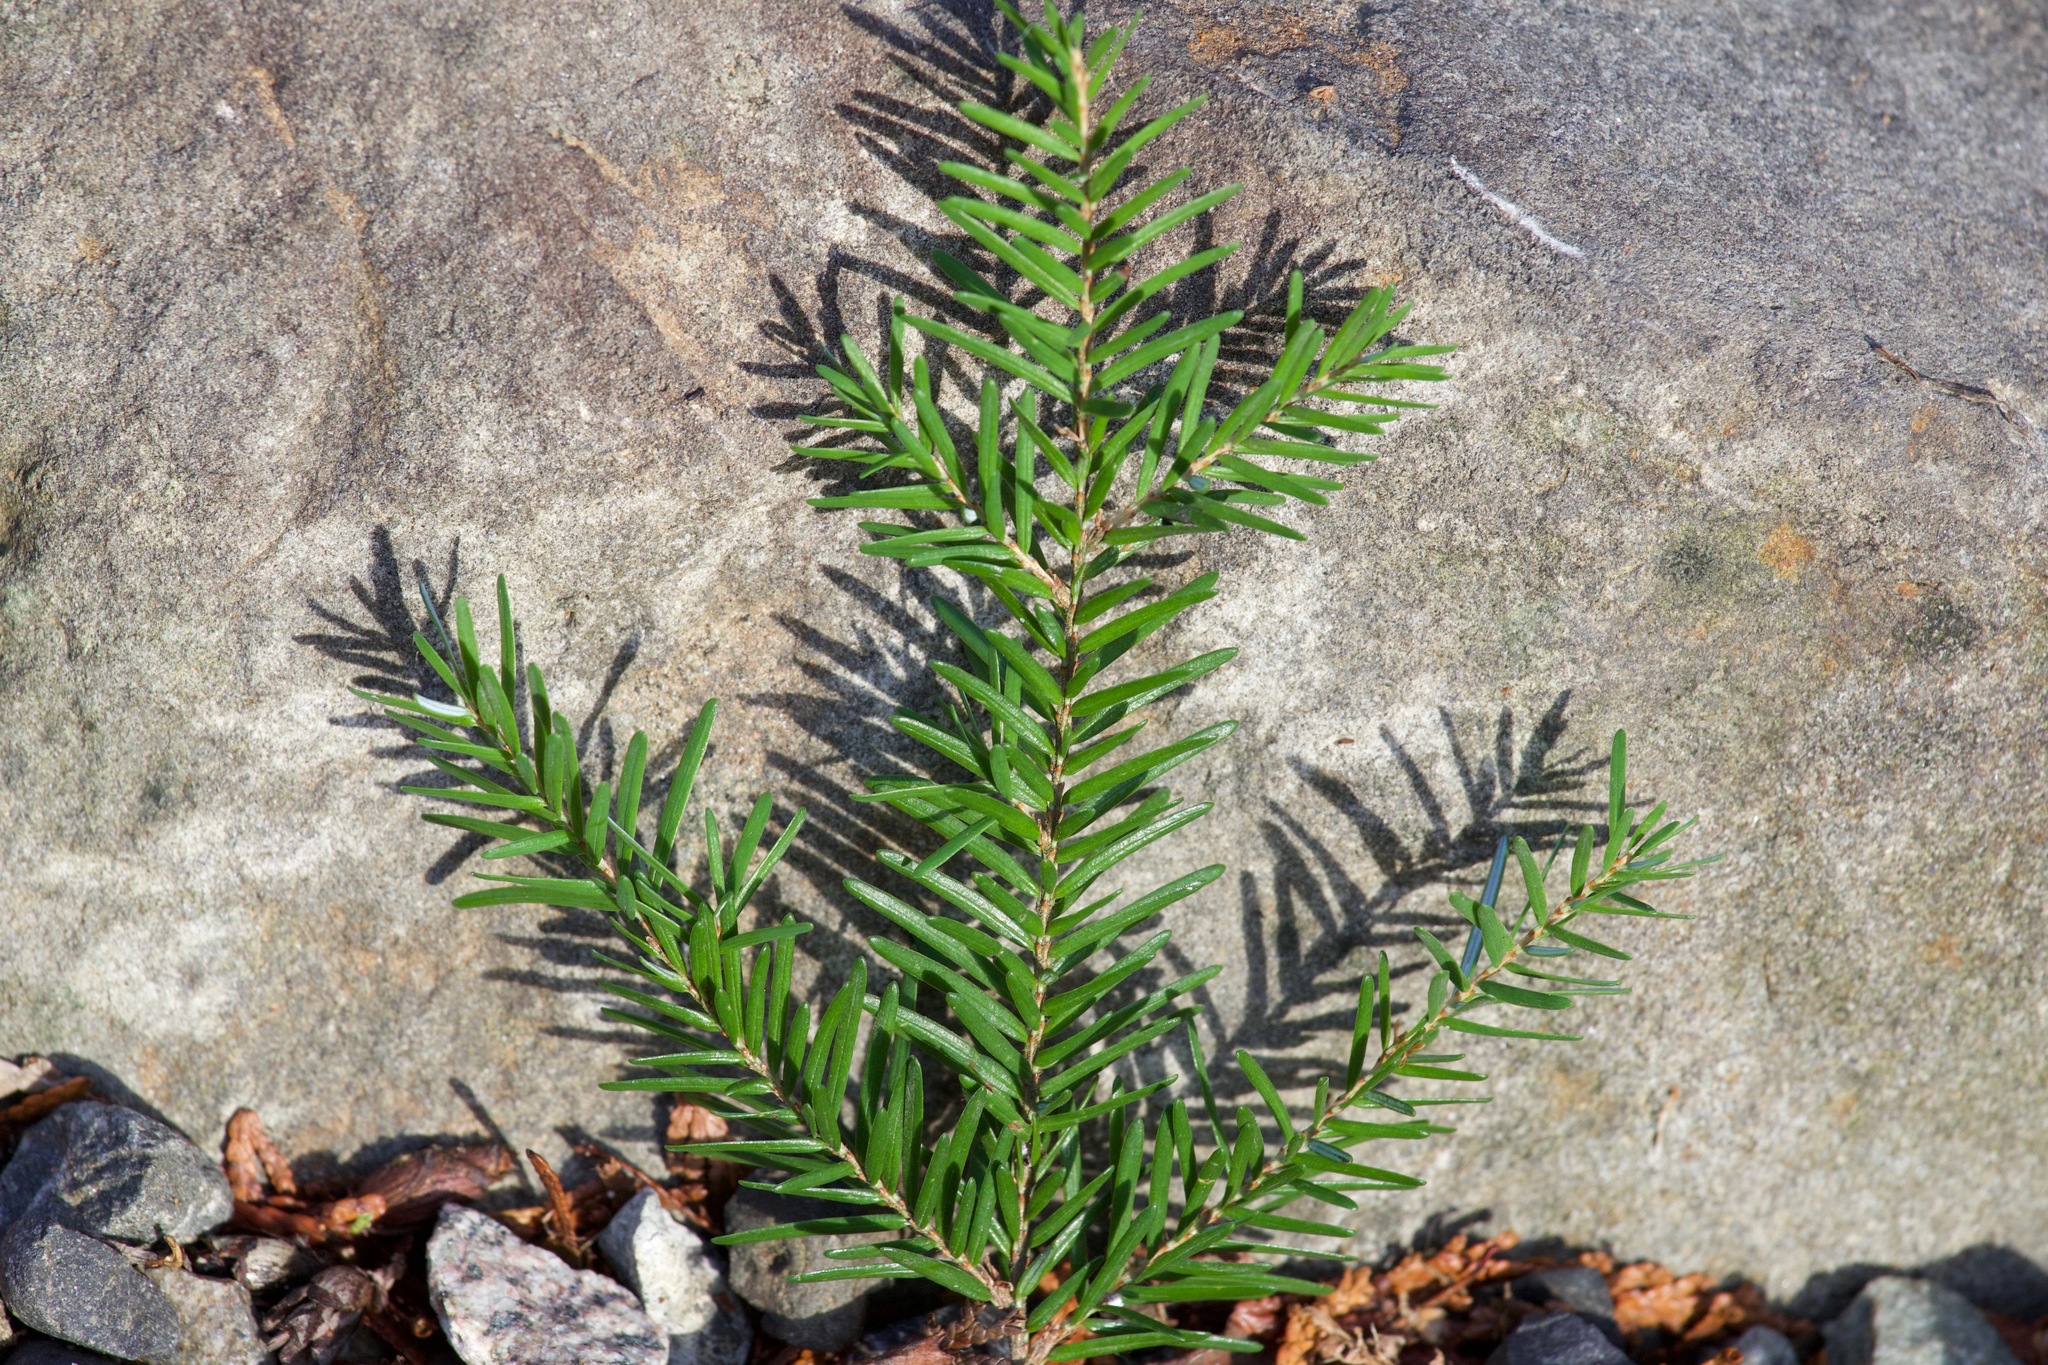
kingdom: Plantae
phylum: Tracheophyta
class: Pinopsida
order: Pinales
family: Pinaceae
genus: Tsuga
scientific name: Tsuga heterophylla
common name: Western hemlock
